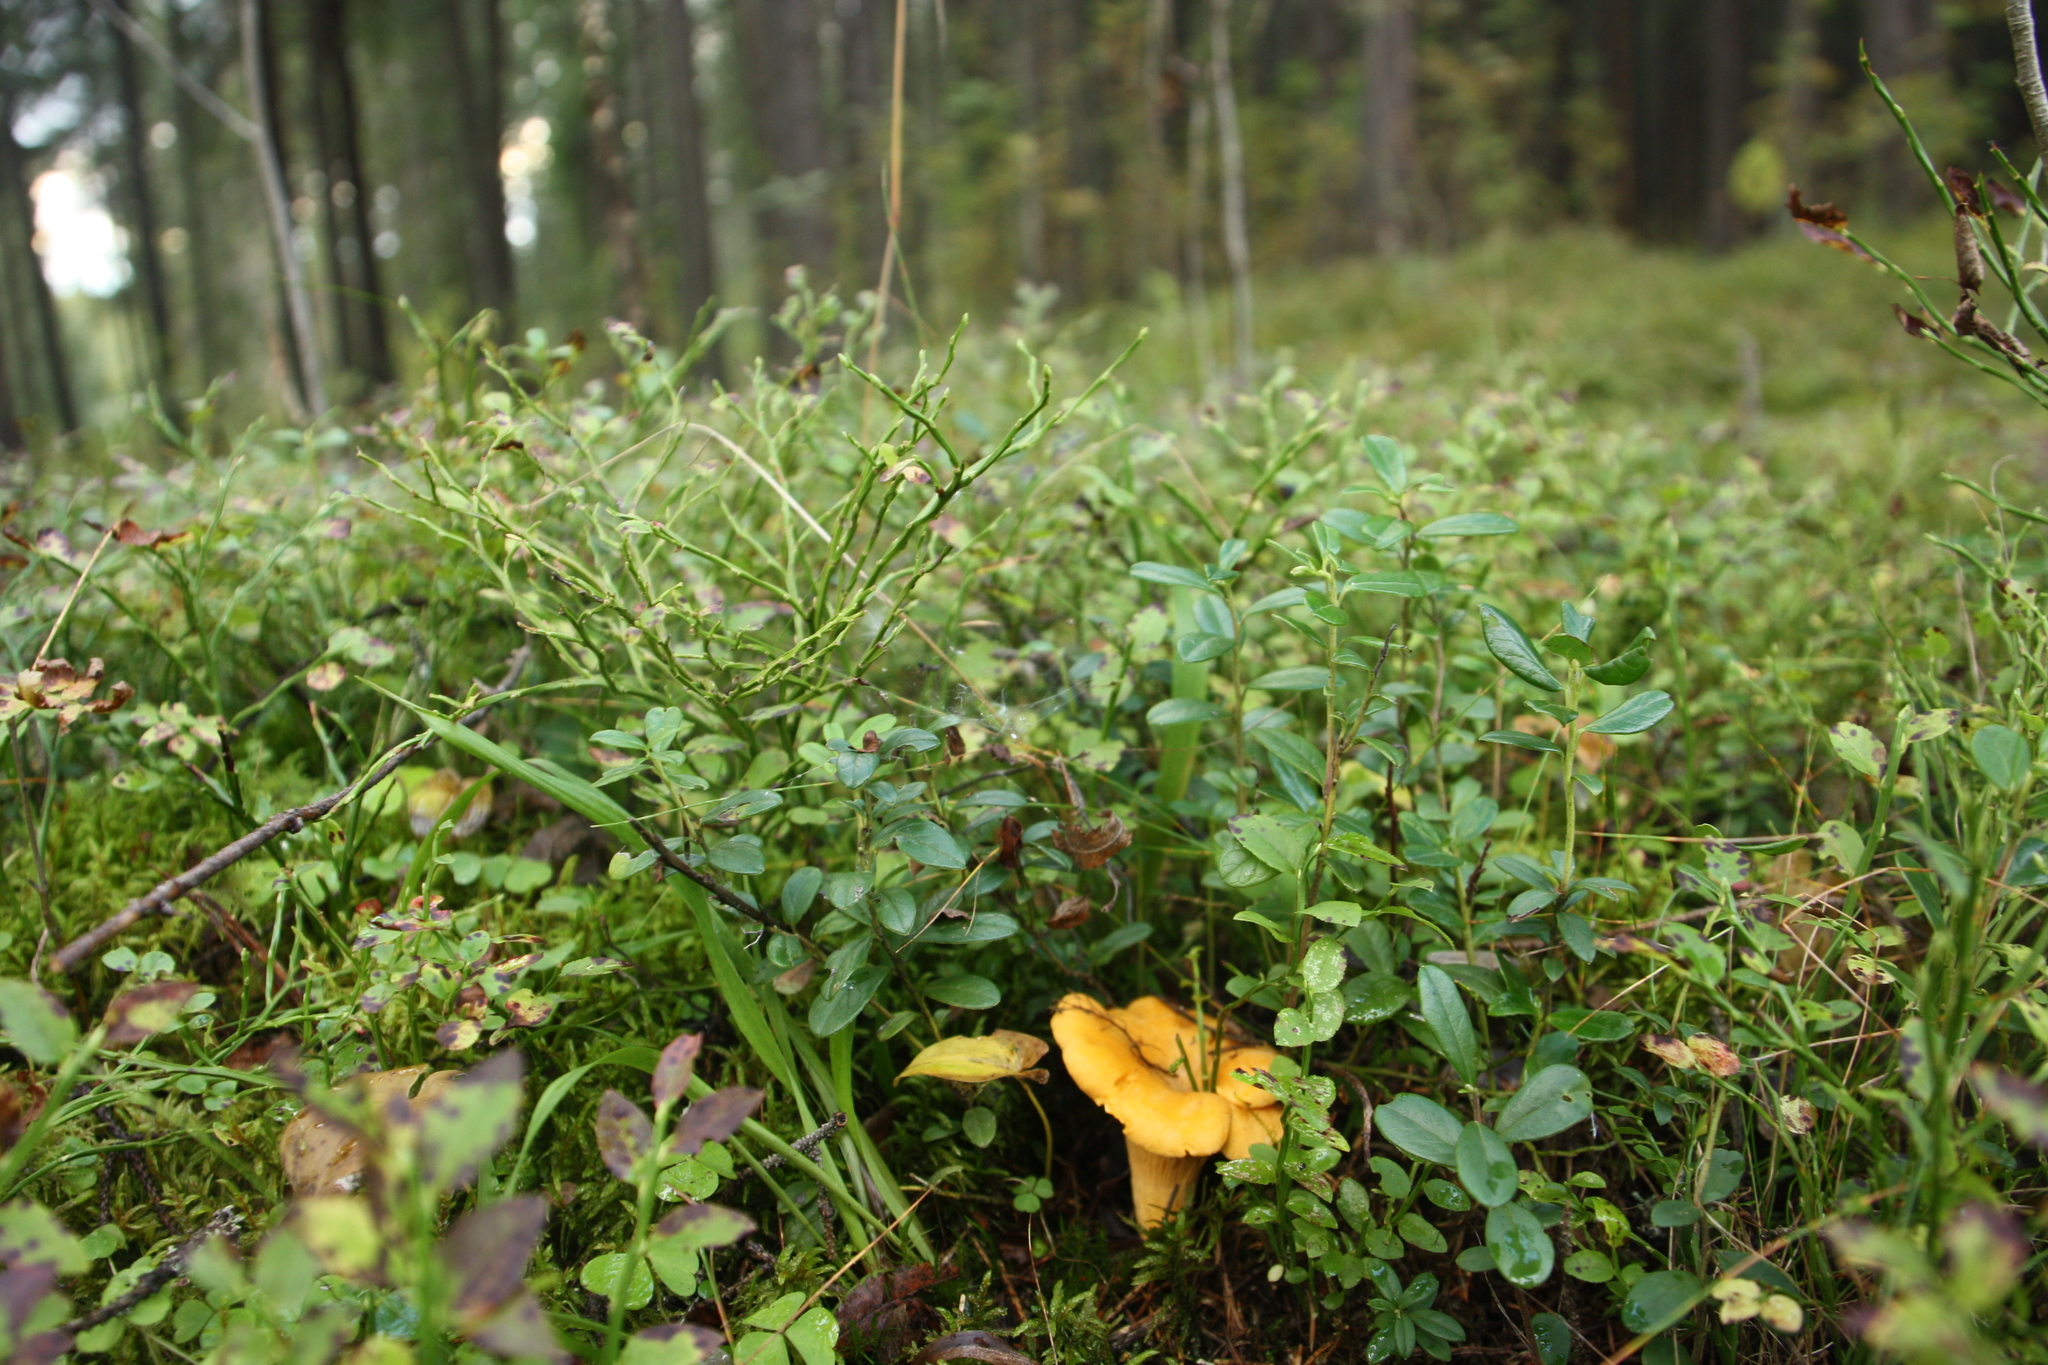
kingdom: Fungi
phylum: Basidiomycota
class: Agaricomycetes
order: Cantharellales
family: Hydnaceae
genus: Cantharellus
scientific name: Cantharellus cibarius
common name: Chanterelle
